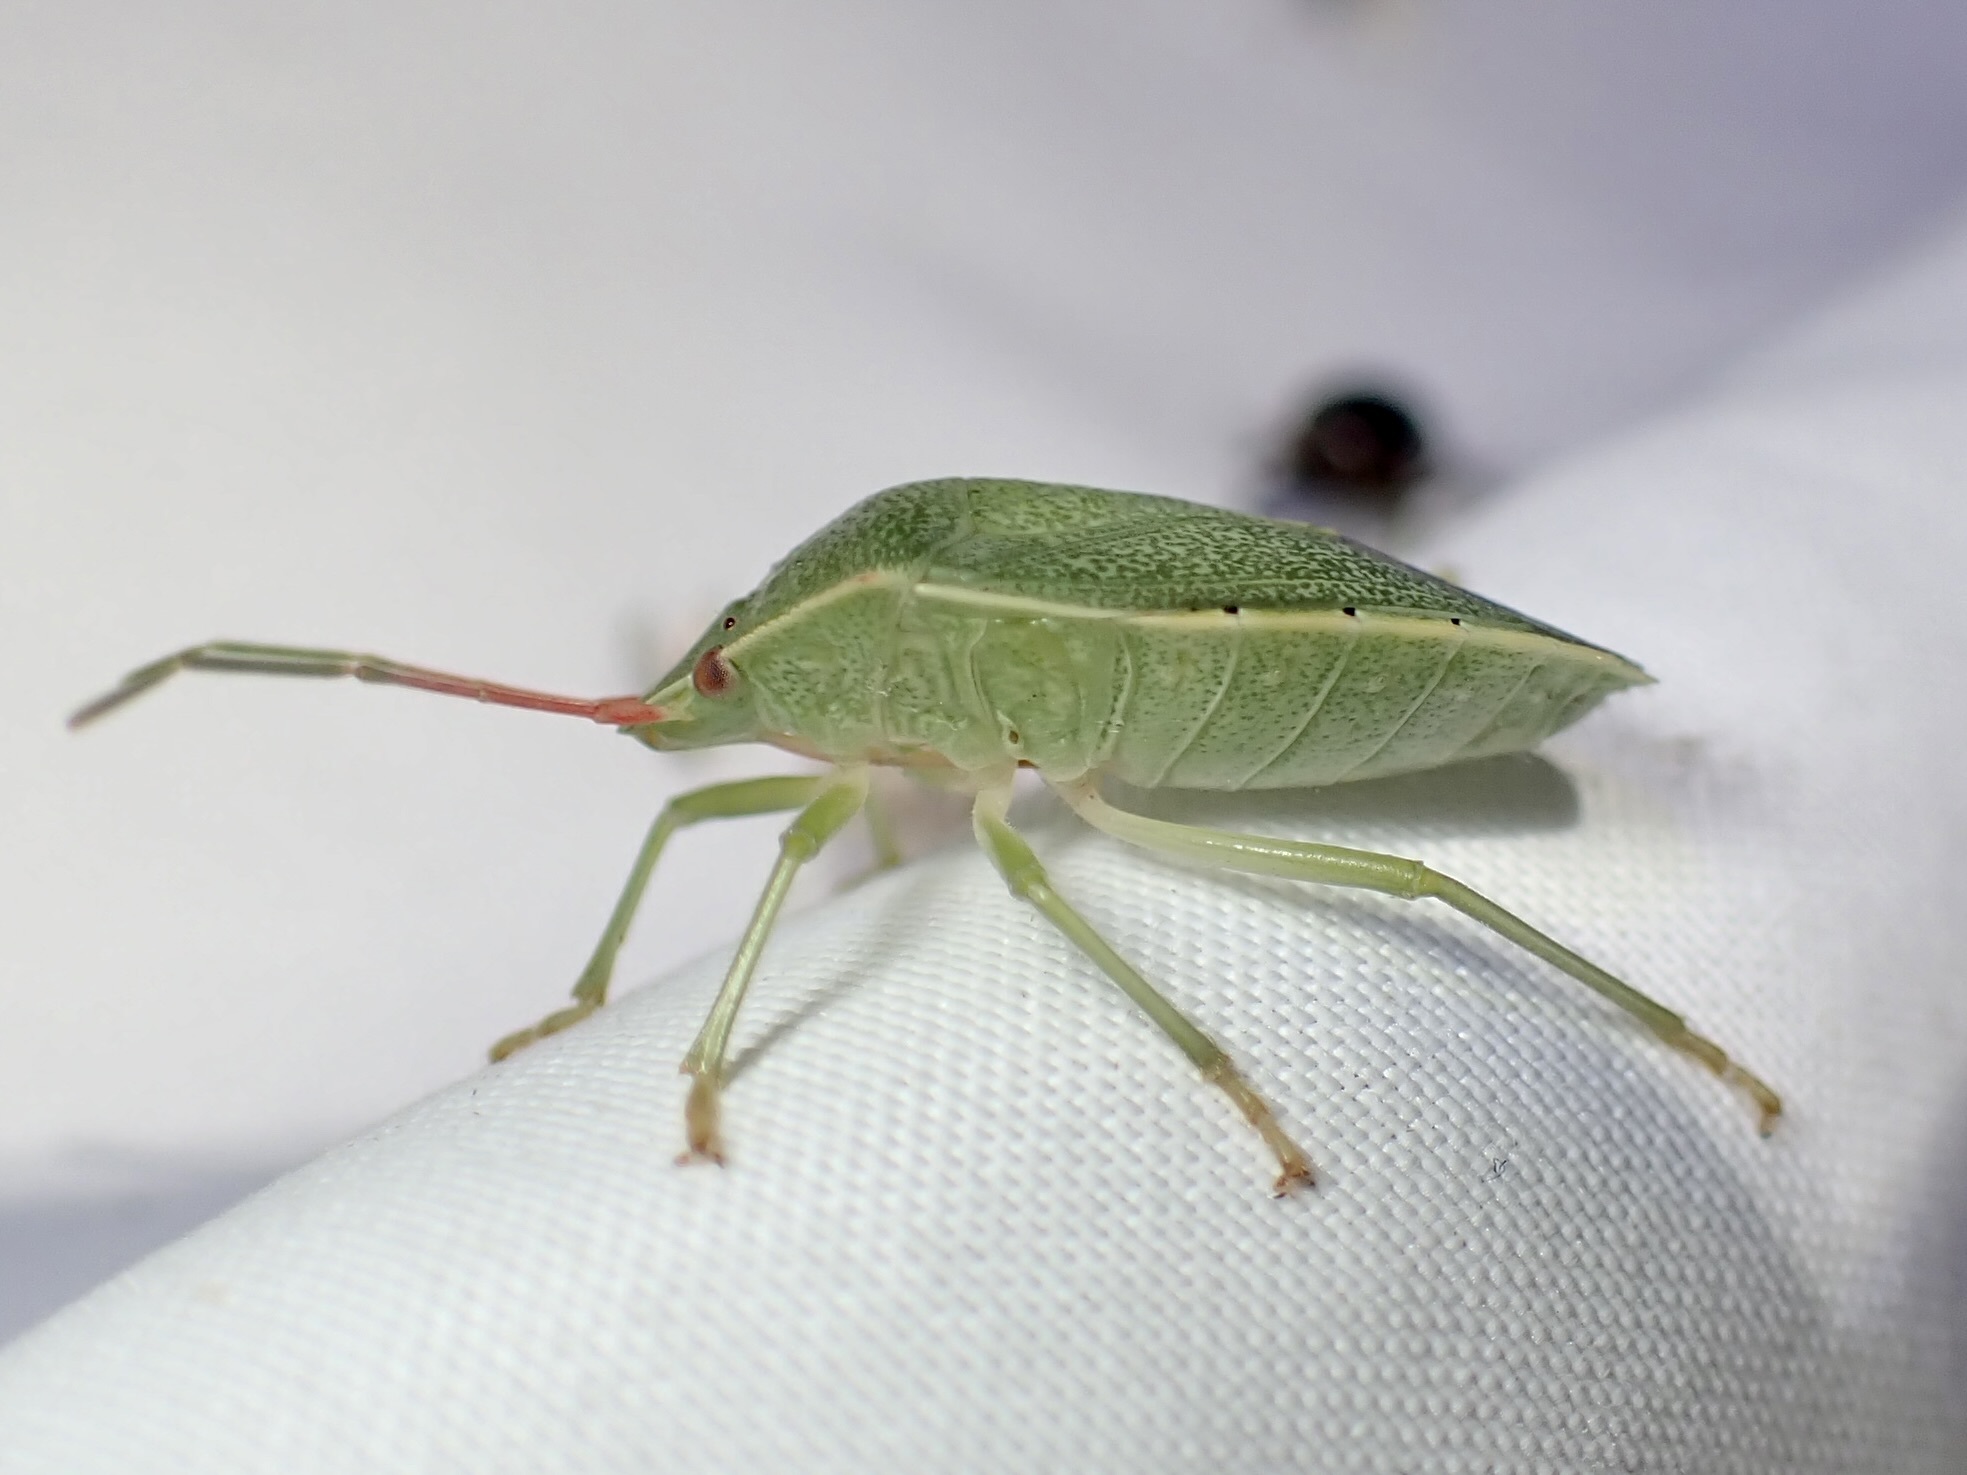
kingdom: Animalia
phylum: Arthropoda
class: Insecta
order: Hemiptera
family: Pentatomidae
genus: Chlorocoris
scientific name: Chlorocoris hebetatus
